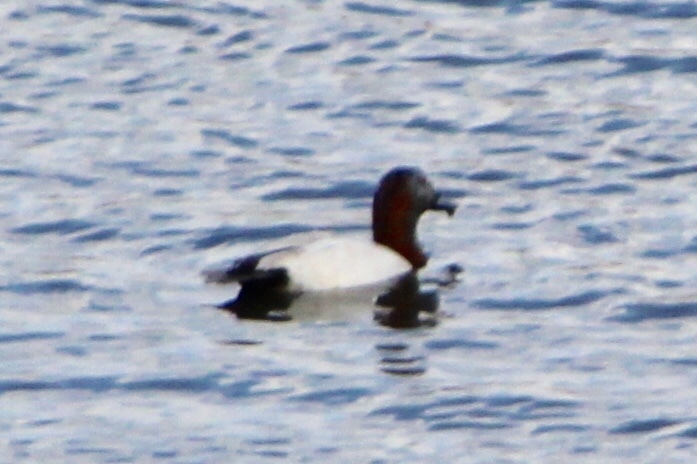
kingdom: Animalia
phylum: Chordata
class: Aves
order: Anseriformes
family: Anatidae
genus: Aythya
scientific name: Aythya valisineria
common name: Canvasback
